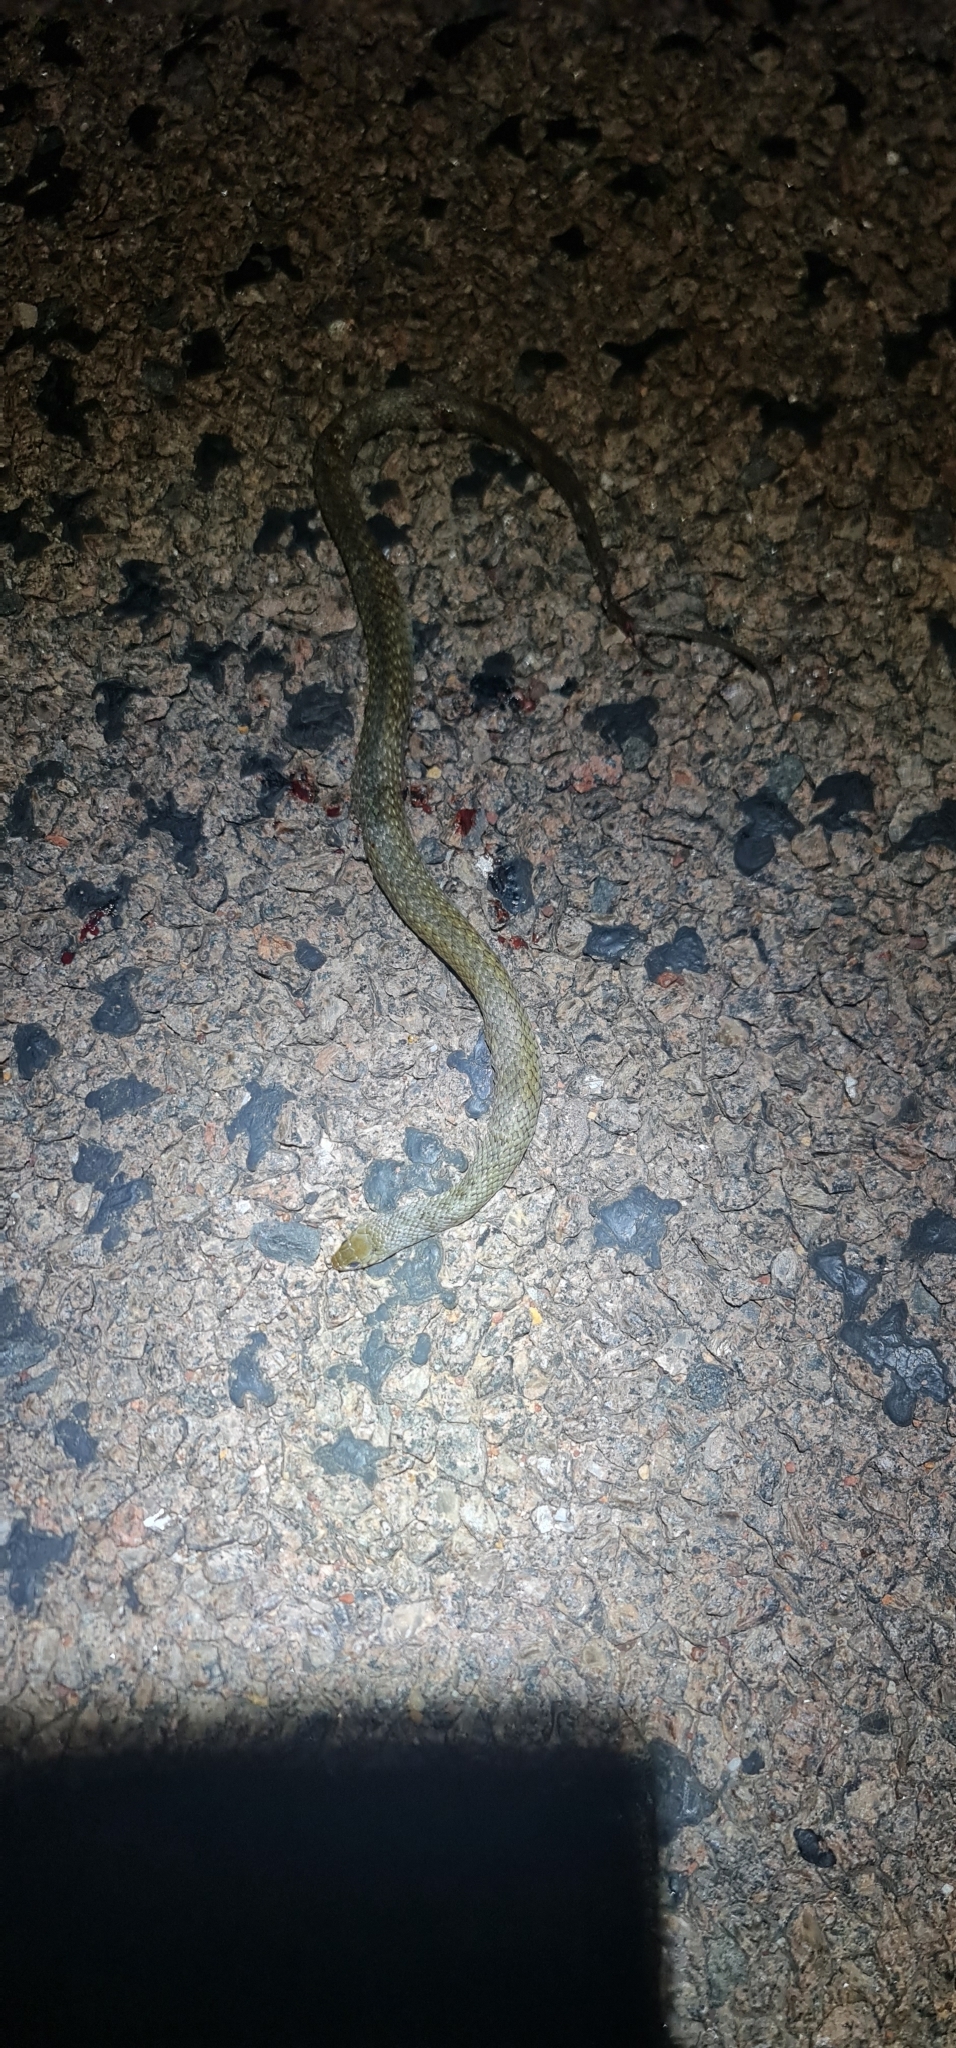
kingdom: Animalia
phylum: Chordata
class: Squamata
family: Colubridae
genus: Tropidonophis
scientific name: Tropidonophis mairii
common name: Common keelback
